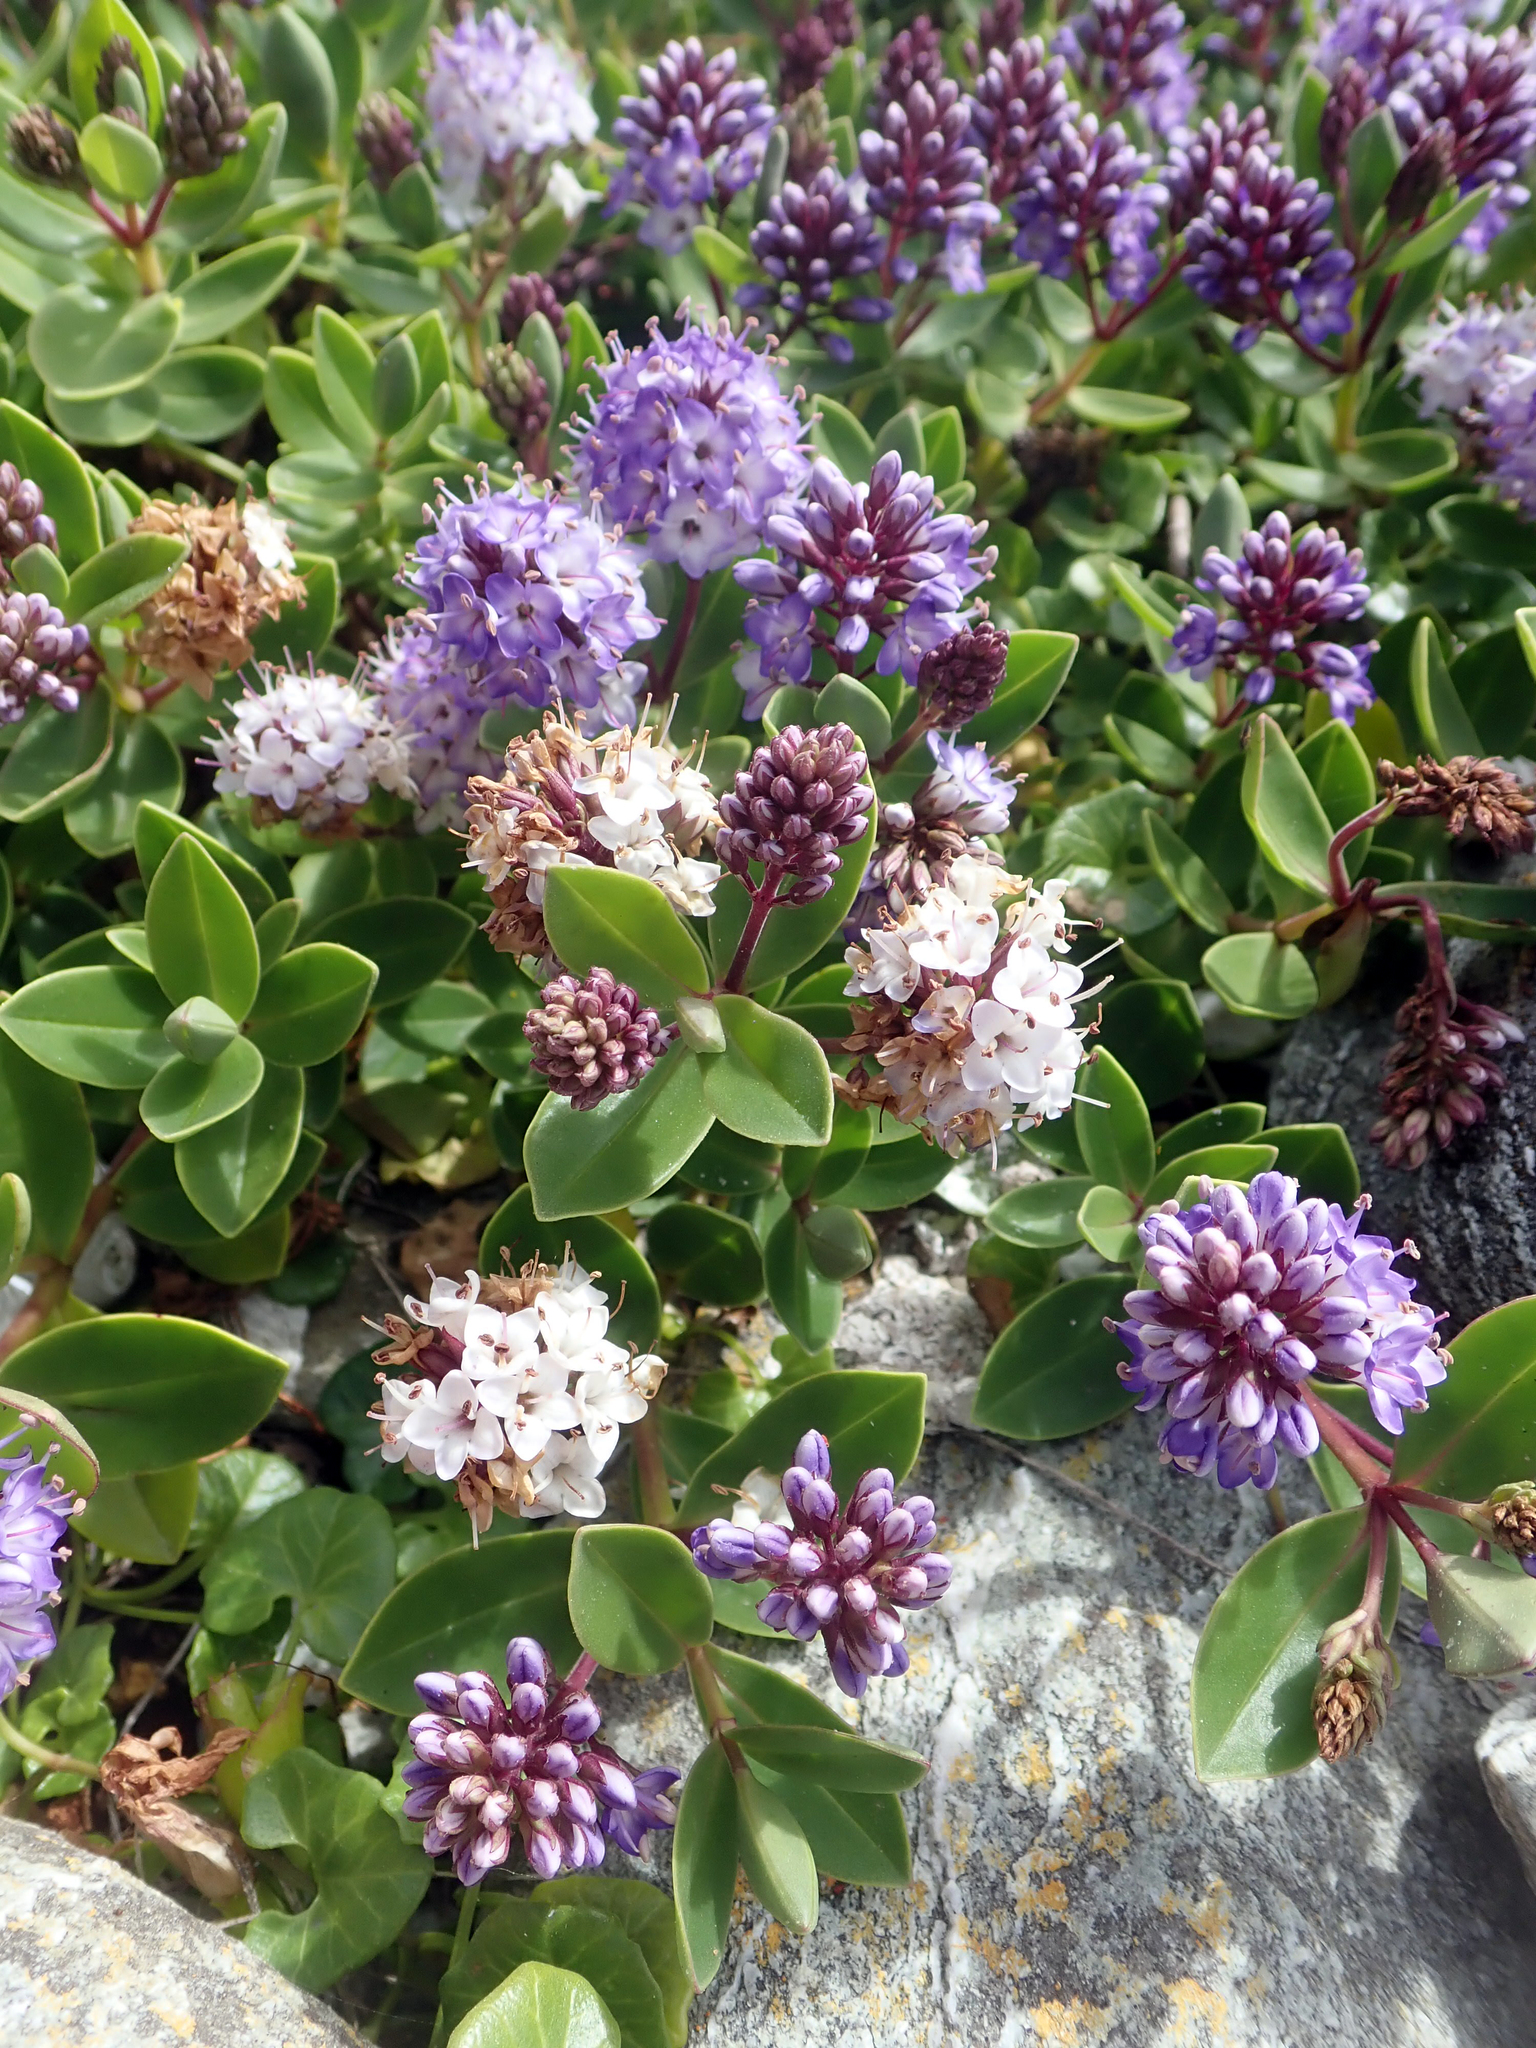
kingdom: Plantae
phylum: Tracheophyta
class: Magnoliopsida
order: Lamiales
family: Plantaginaceae
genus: Veronica
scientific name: Veronica chathamica
